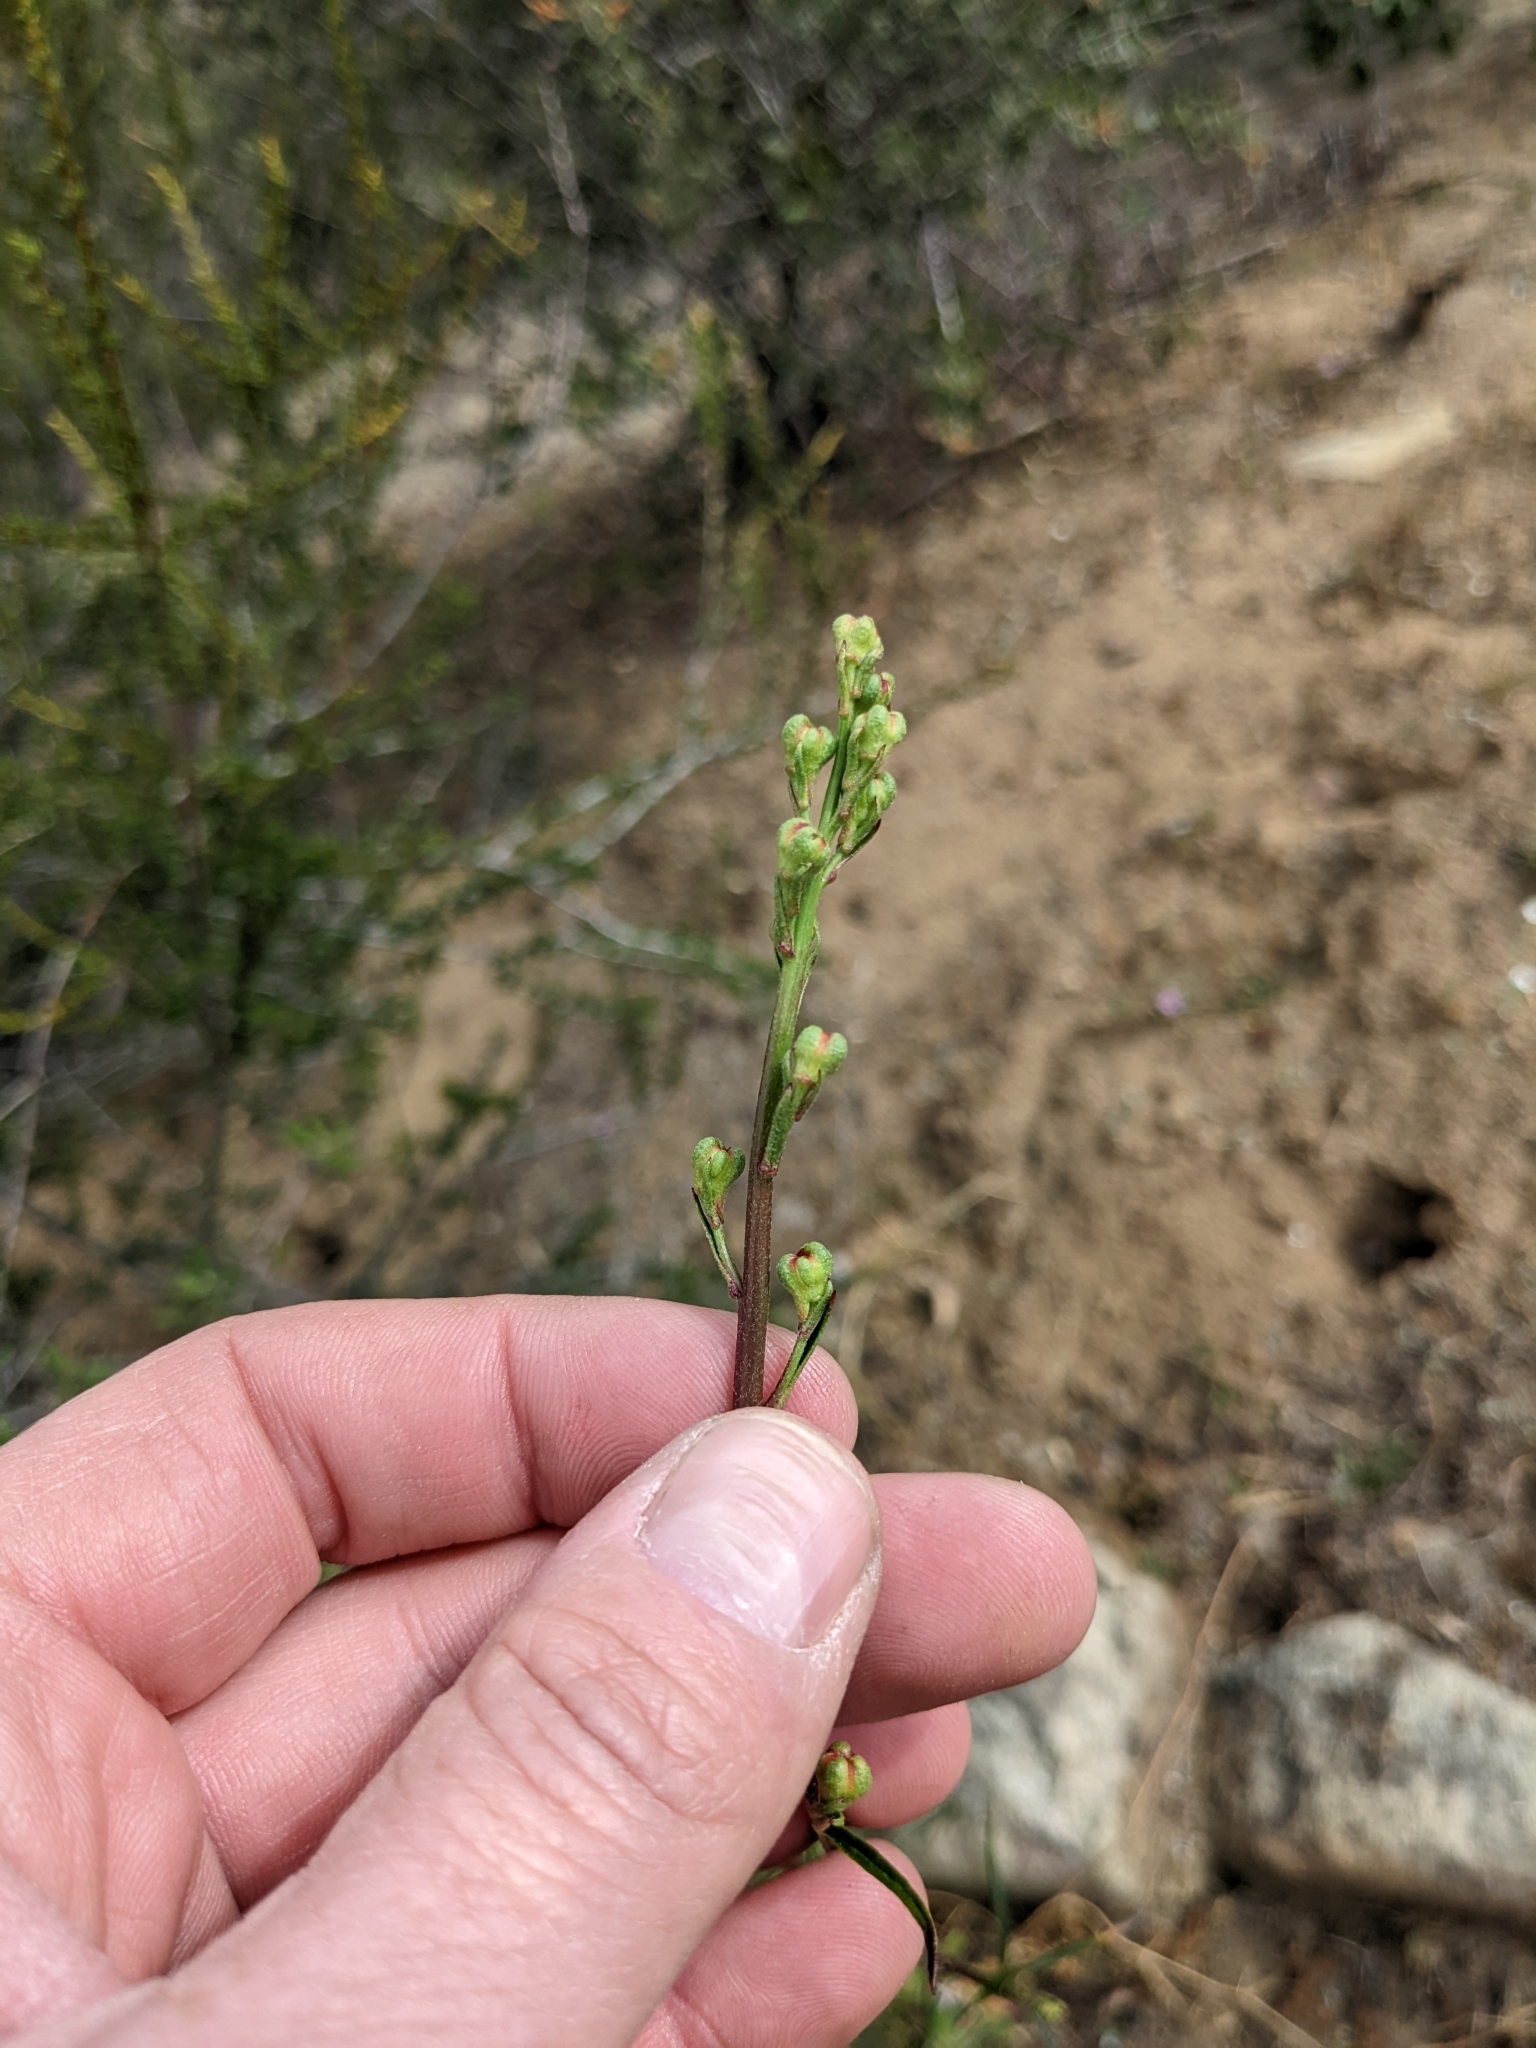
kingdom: Plantae
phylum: Tracheophyta
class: Magnoliopsida
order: Ranunculales
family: Ranunculaceae
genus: Delphinium
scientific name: Delphinium cardinale
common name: Scarlet larkspur
